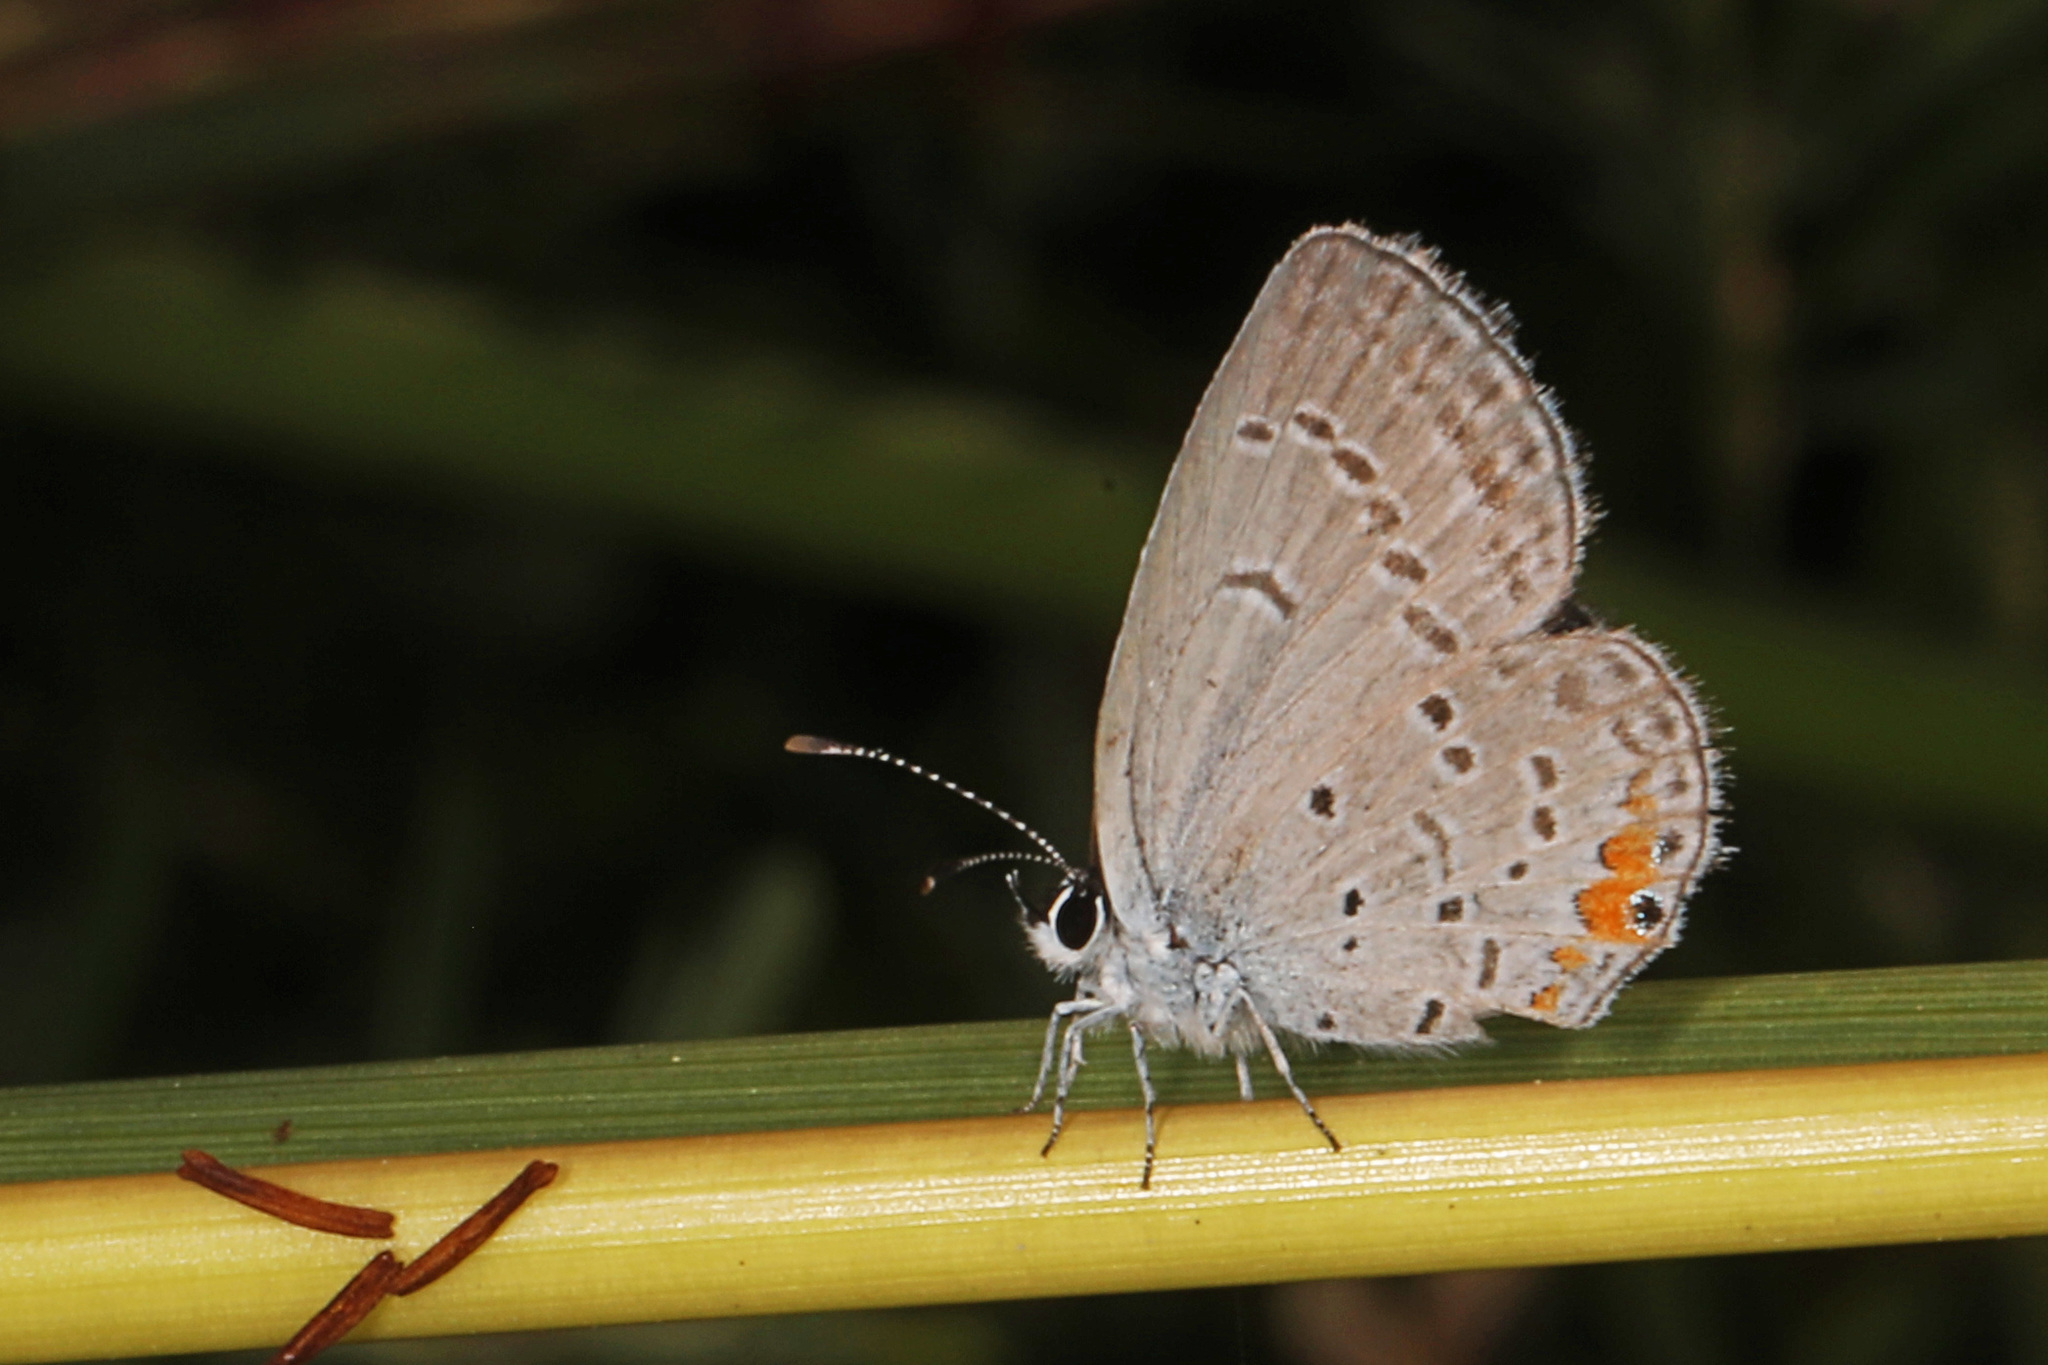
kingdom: Animalia
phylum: Arthropoda
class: Insecta
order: Lepidoptera
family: Lycaenidae
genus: Elkalyce
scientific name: Elkalyce comyntas
